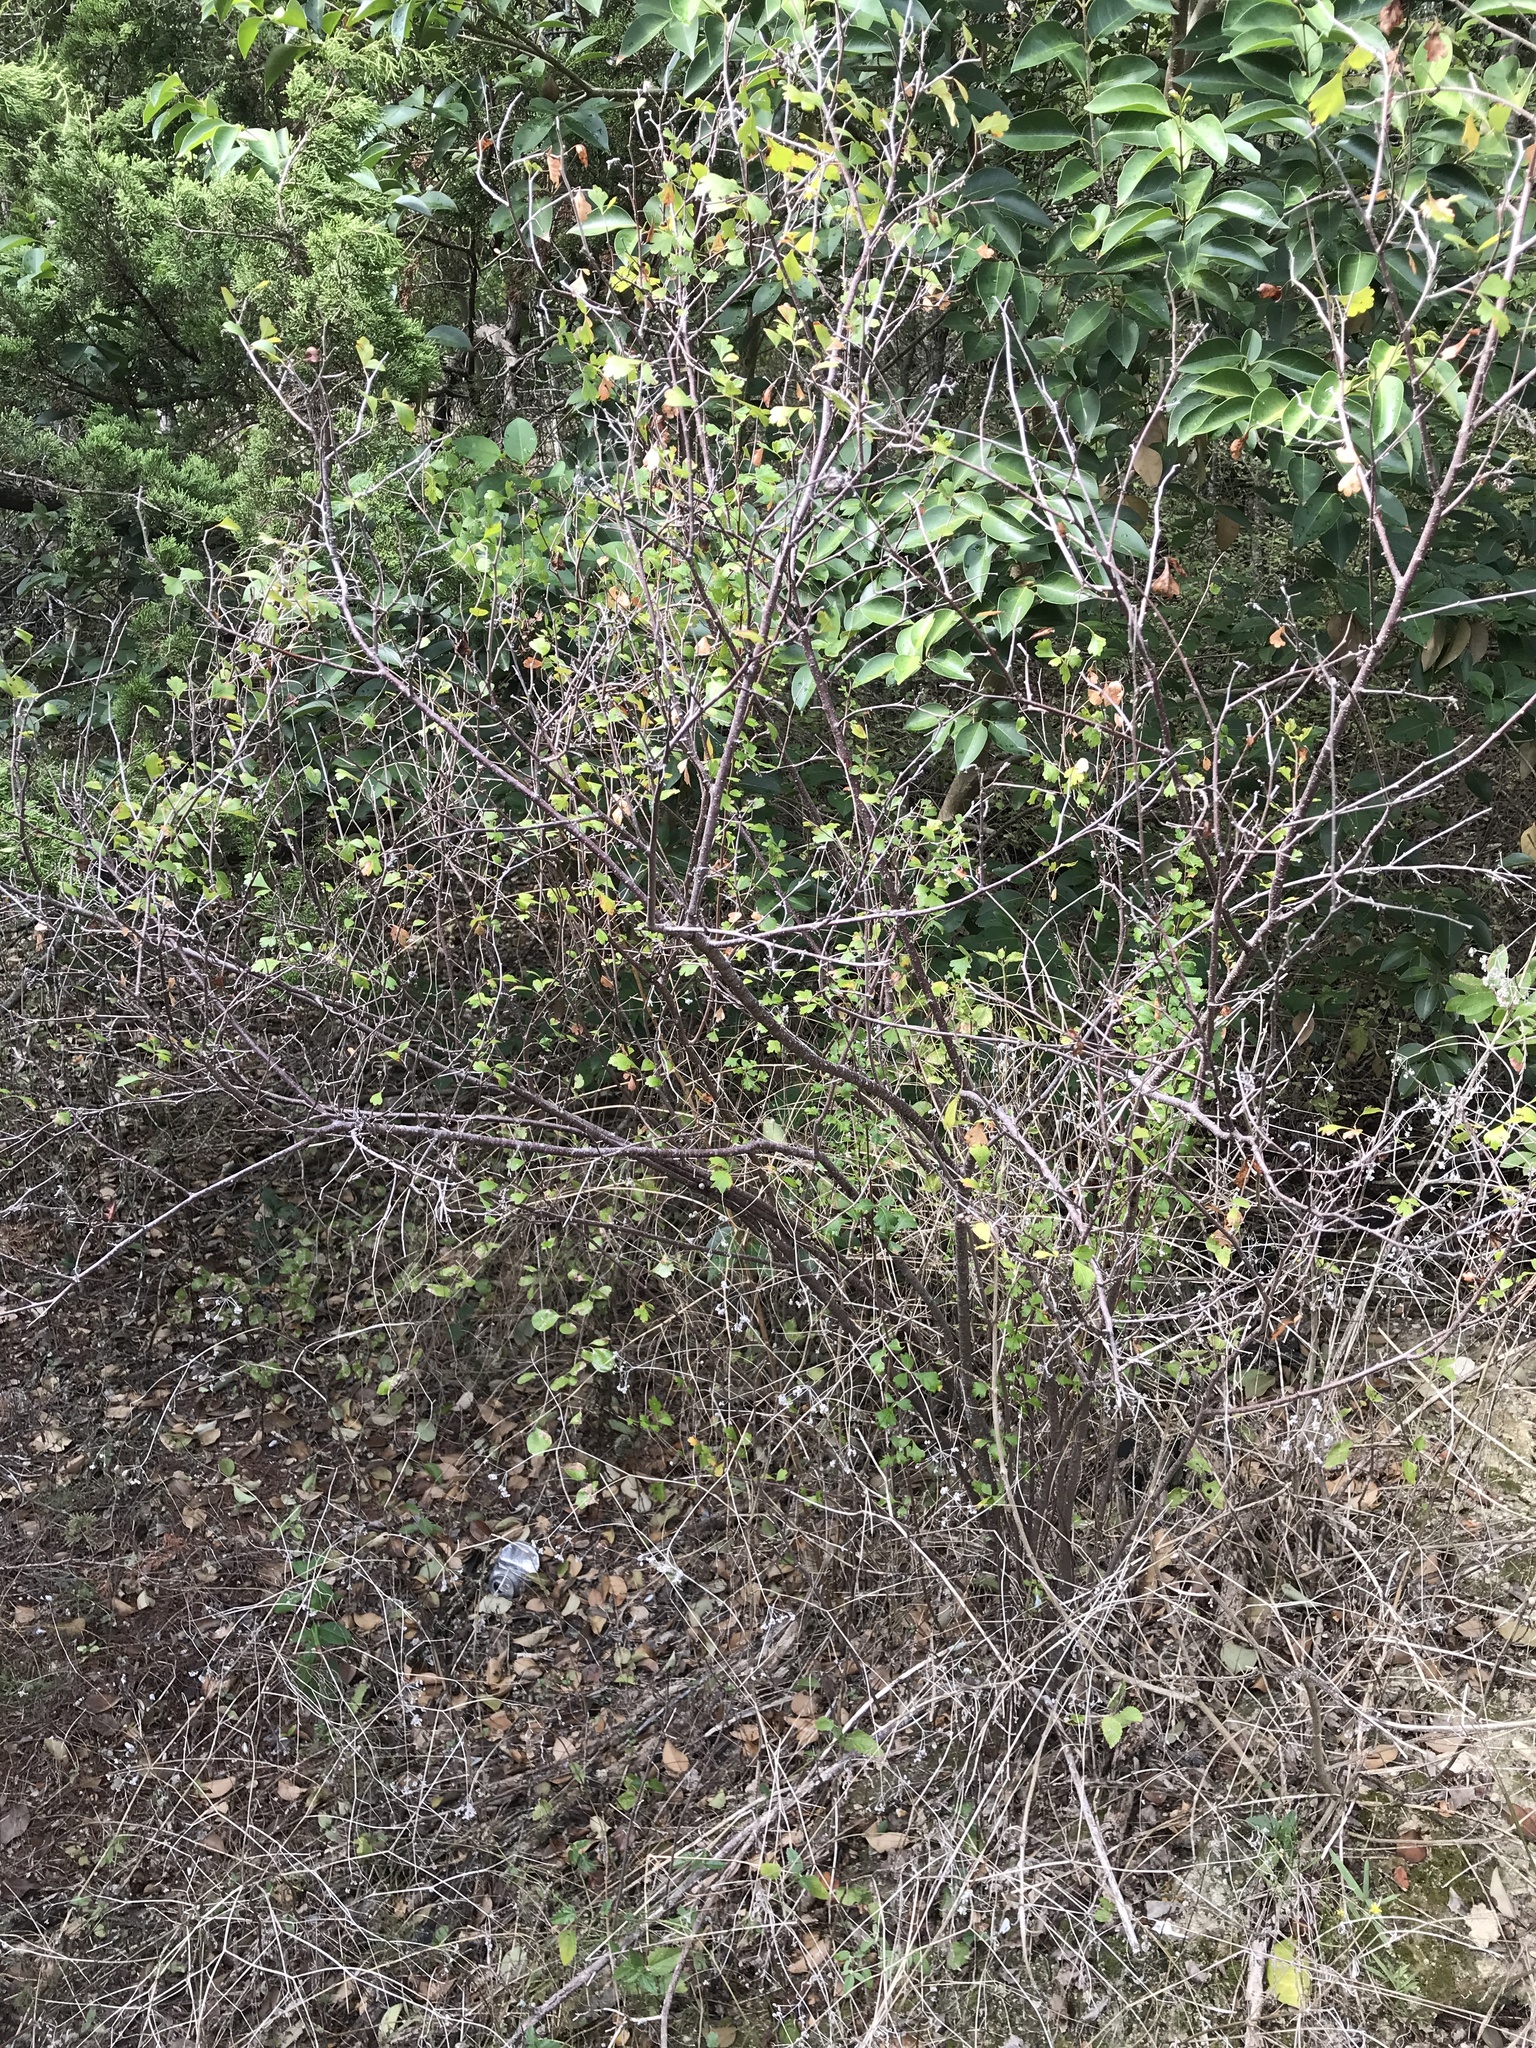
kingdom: Plantae
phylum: Tracheophyta
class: Magnoliopsida
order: Sapindales
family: Anacardiaceae
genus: Rhus
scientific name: Rhus aromatica
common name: Aromatic sumac
